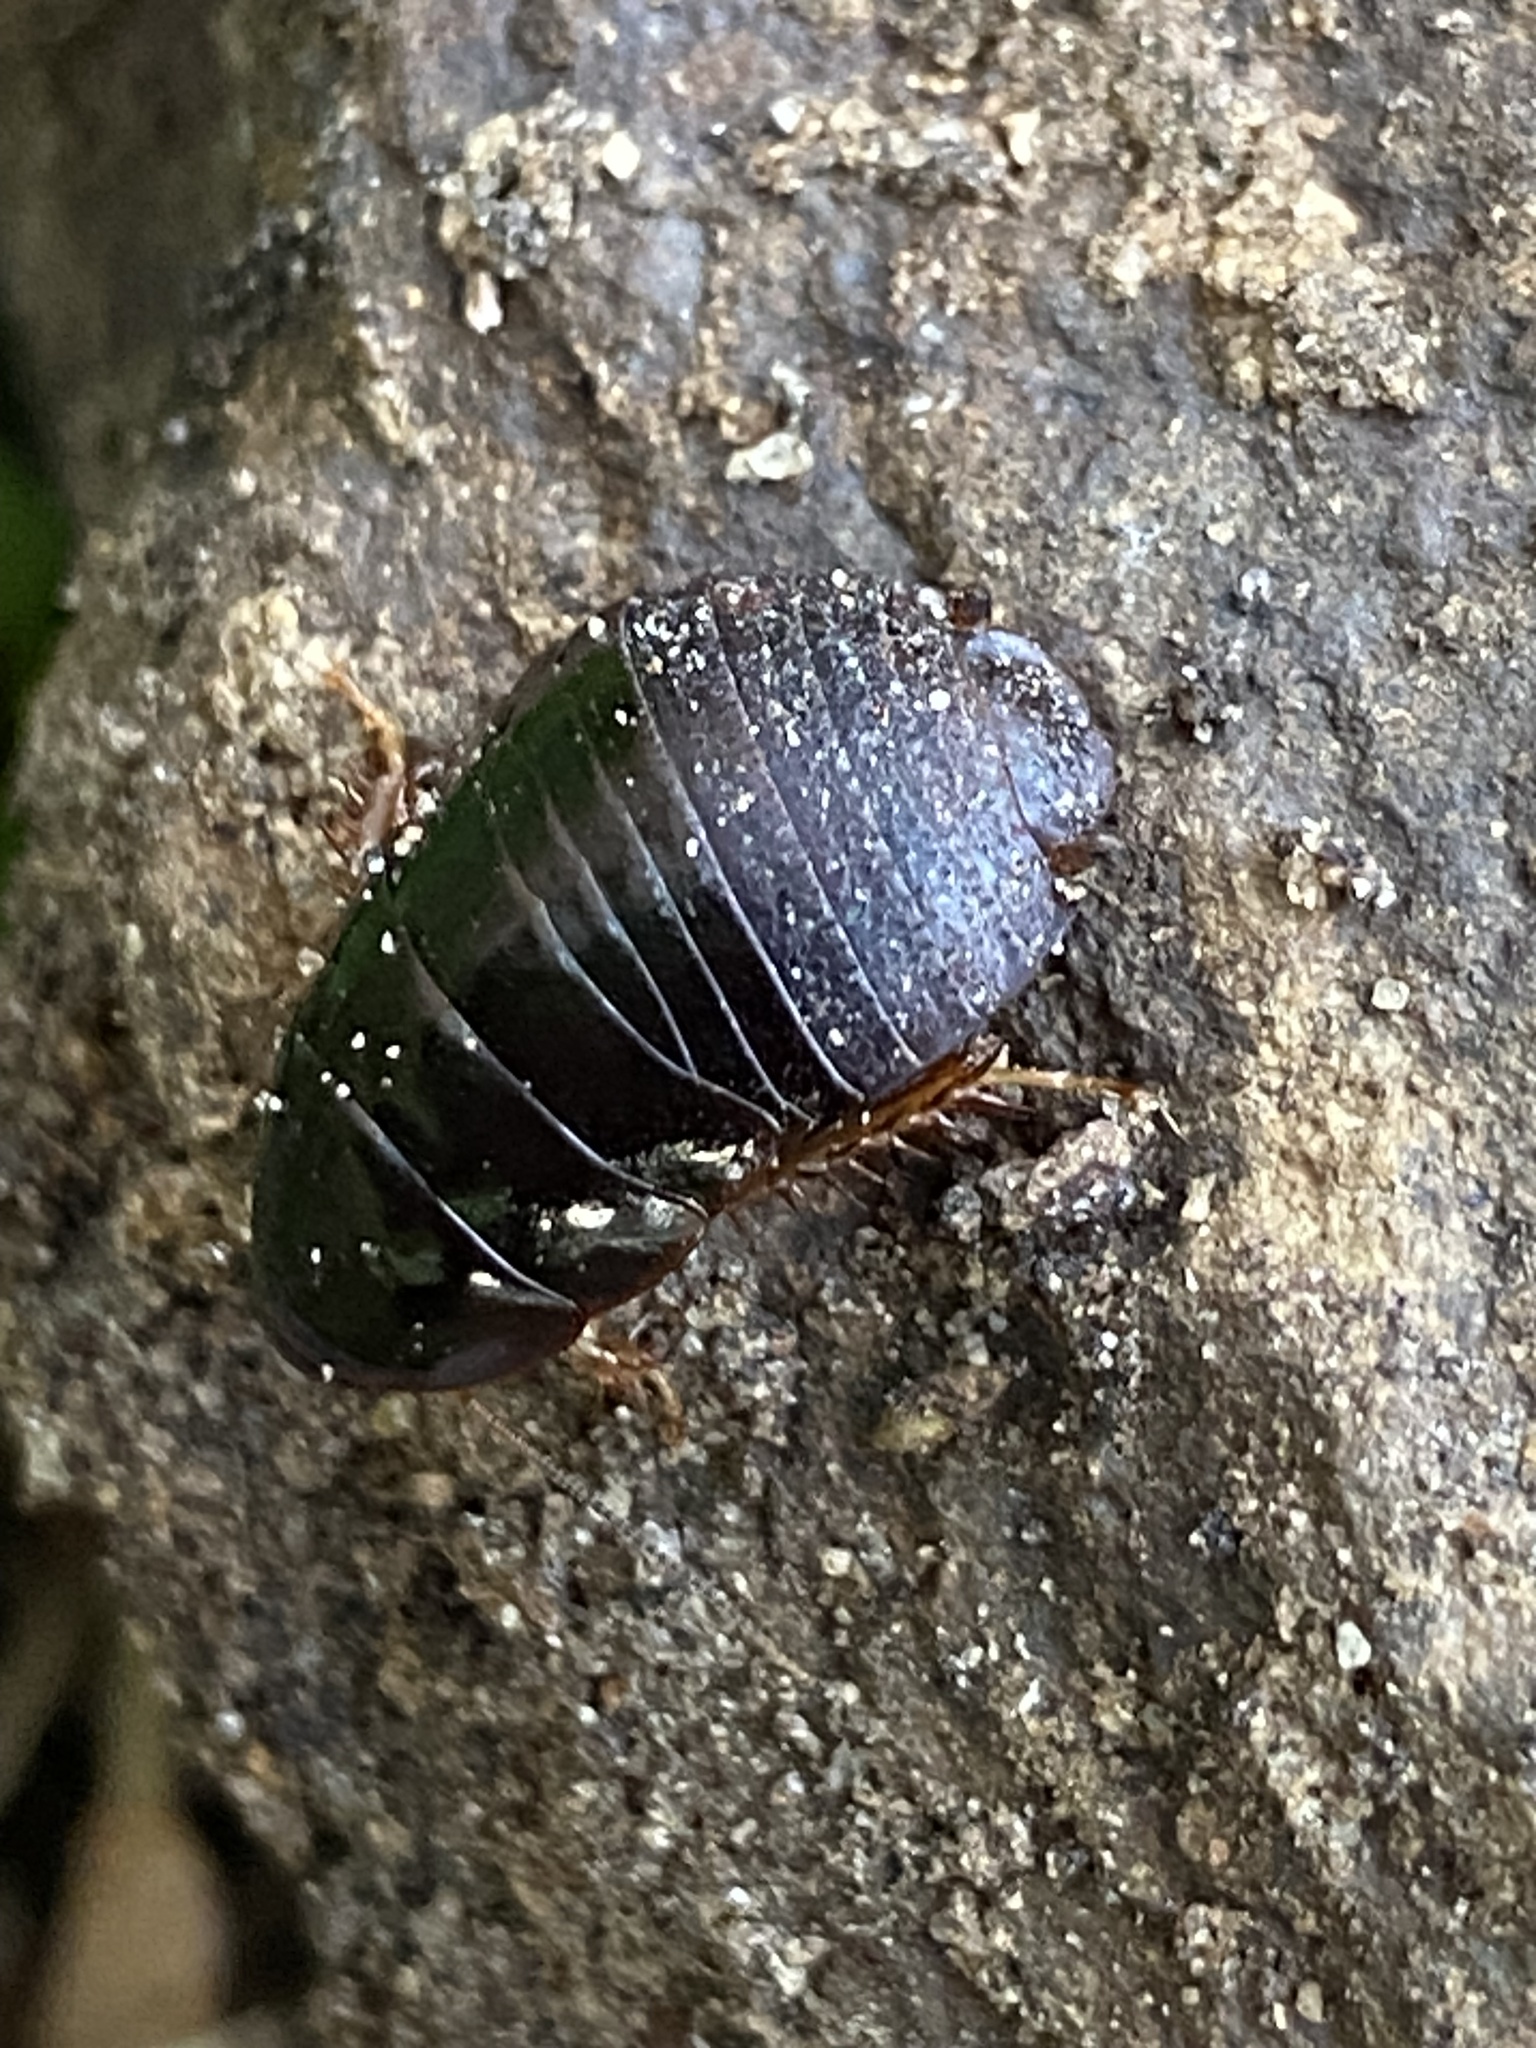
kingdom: Animalia
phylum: Arthropoda
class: Insecta
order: Blattodea
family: Blaberidae
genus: Pycnoscelus
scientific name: Pycnoscelus surinamensis
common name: Surinam cockroach
